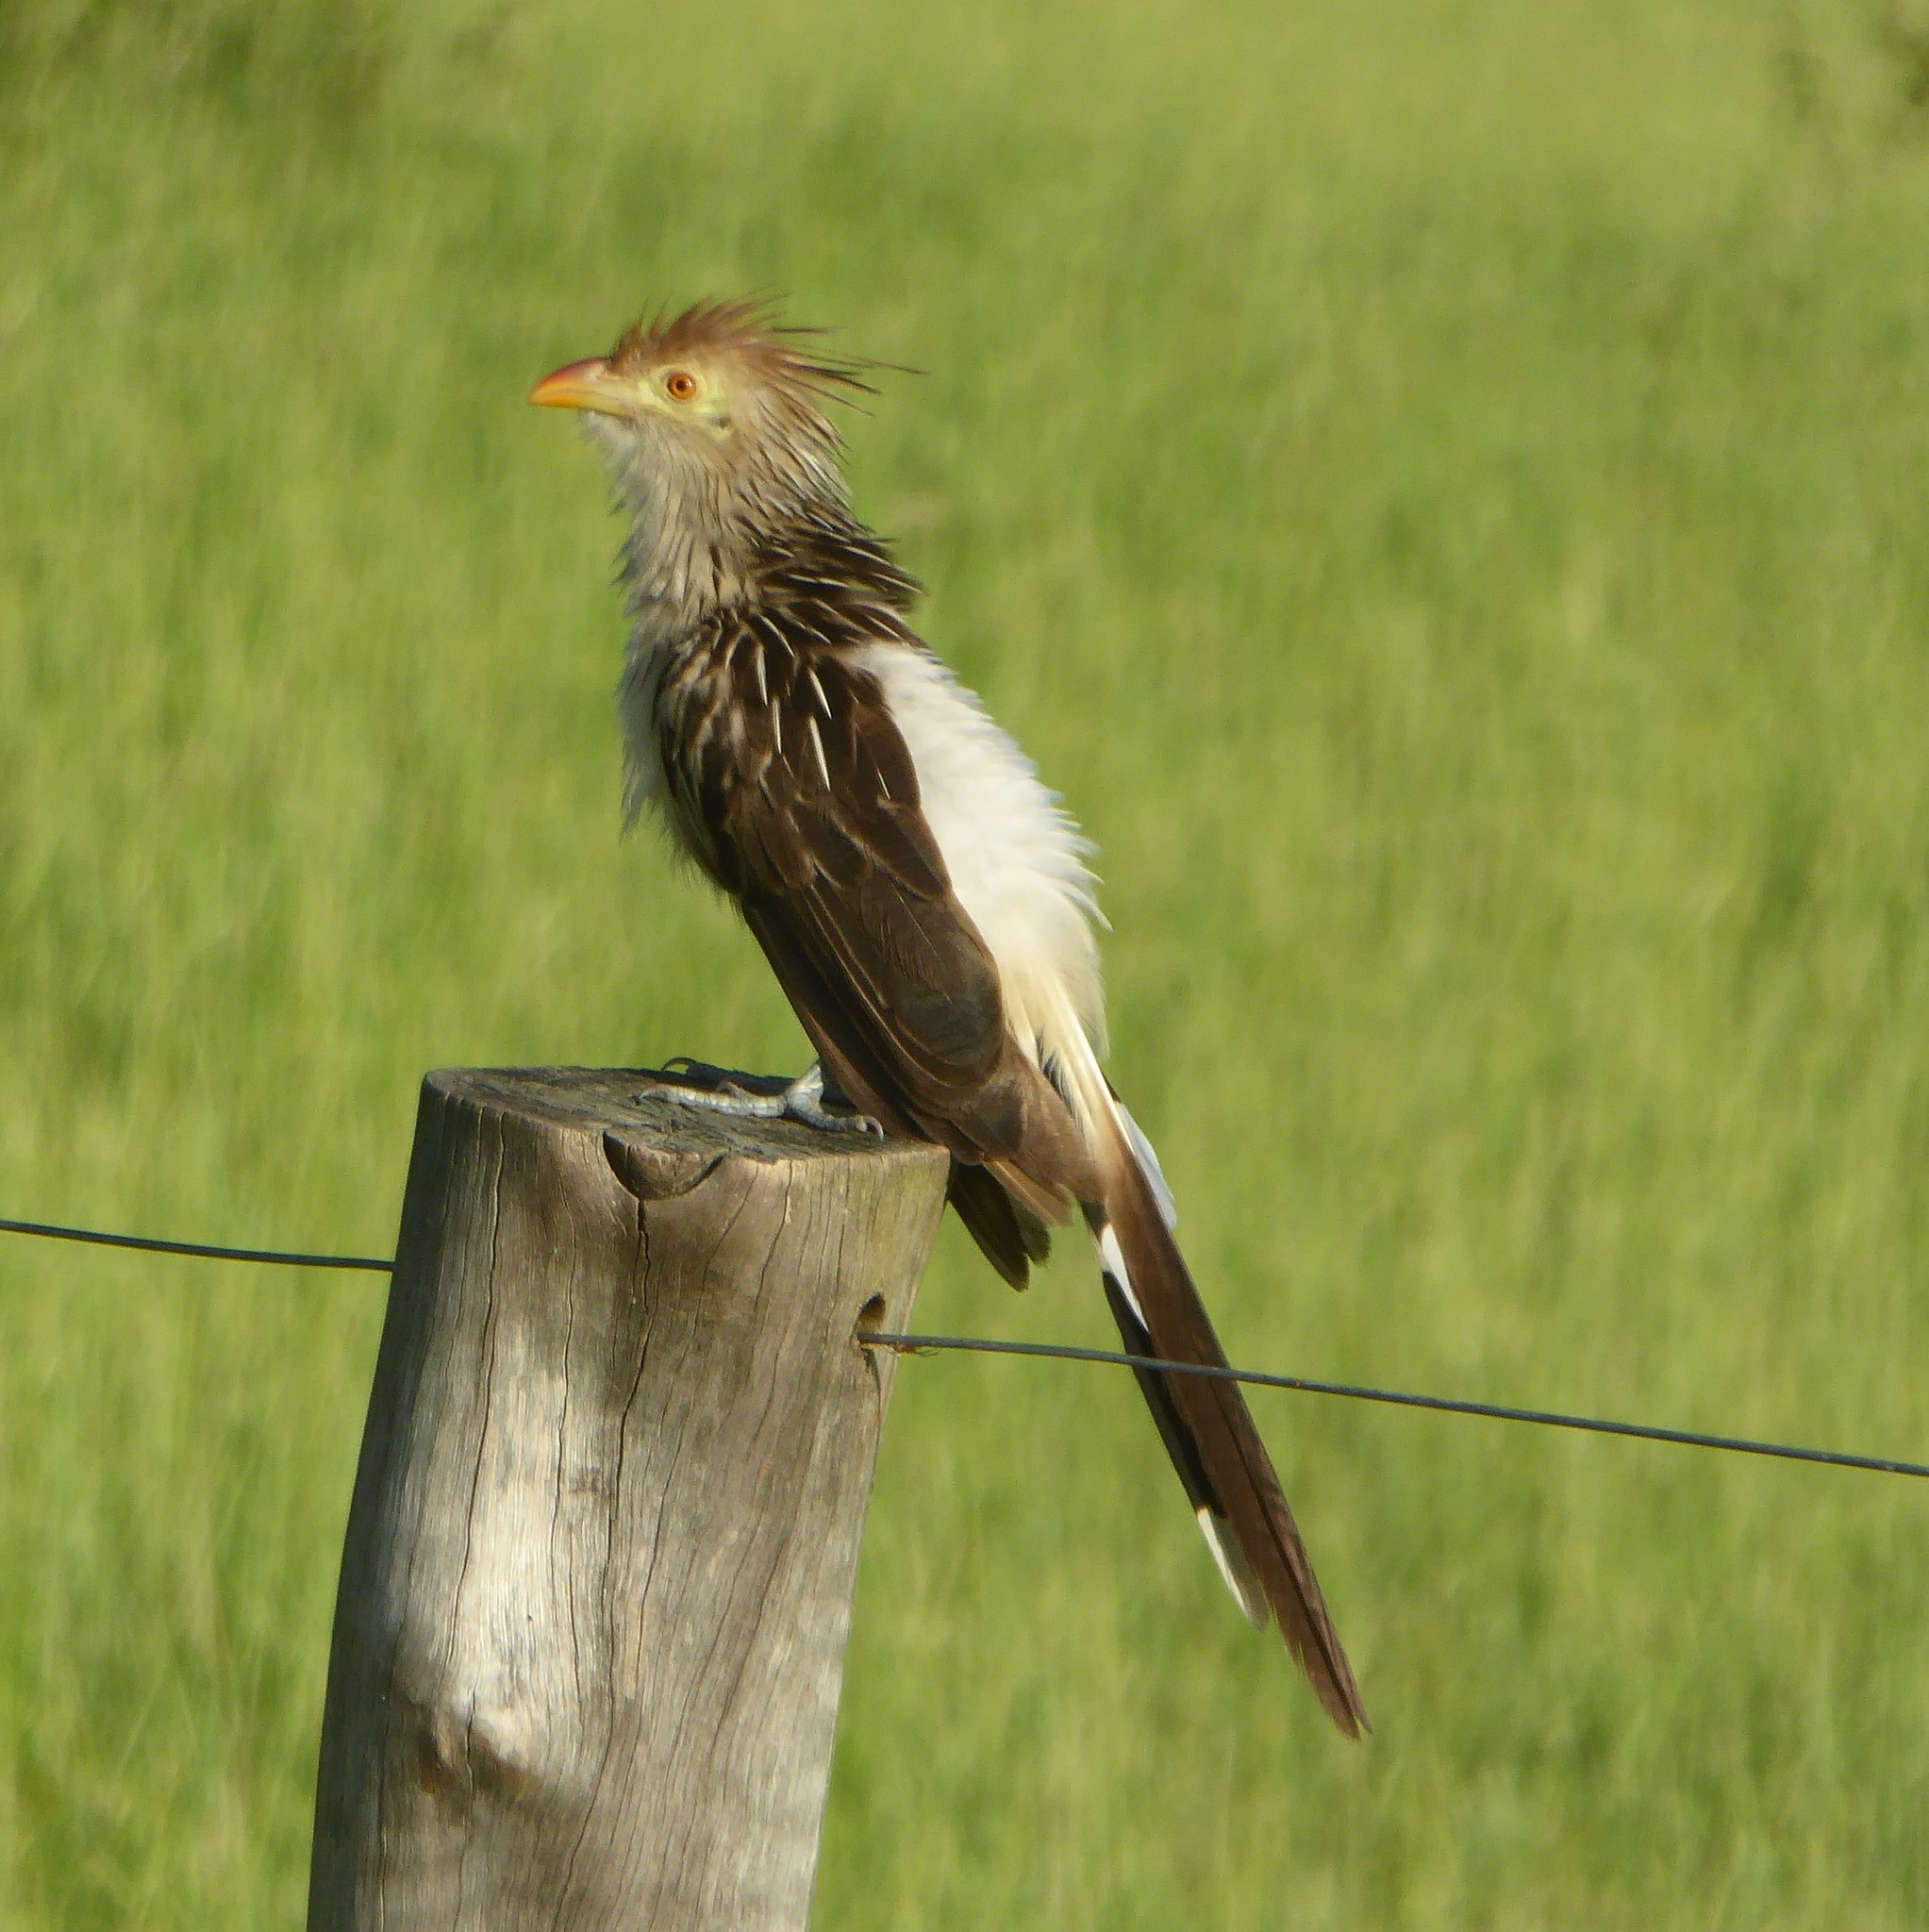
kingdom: Animalia
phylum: Chordata
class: Aves
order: Cuculiformes
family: Cuculidae
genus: Guira
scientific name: Guira guira
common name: Guira cuckoo
